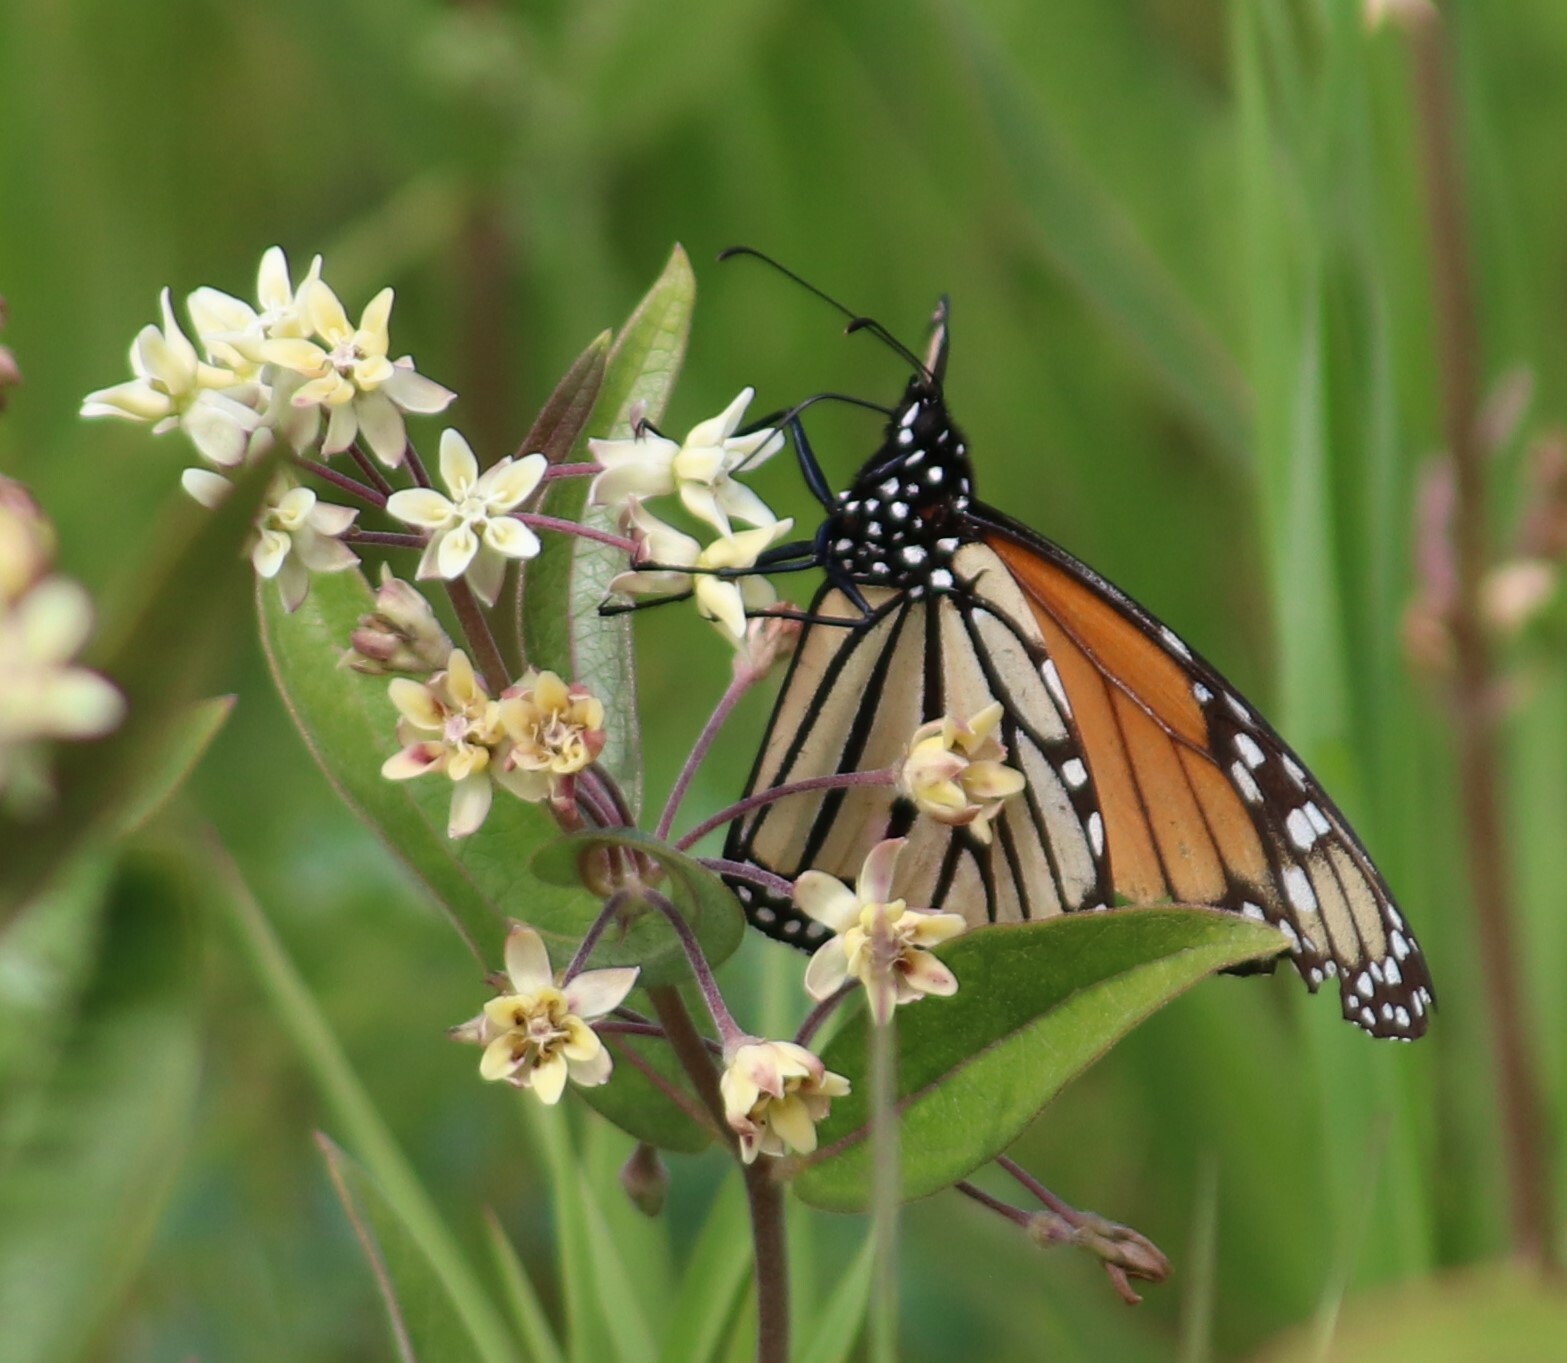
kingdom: Animalia
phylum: Arthropoda
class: Insecta
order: Lepidoptera
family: Nymphalidae
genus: Danaus
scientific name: Danaus plexippus
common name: Monarch
